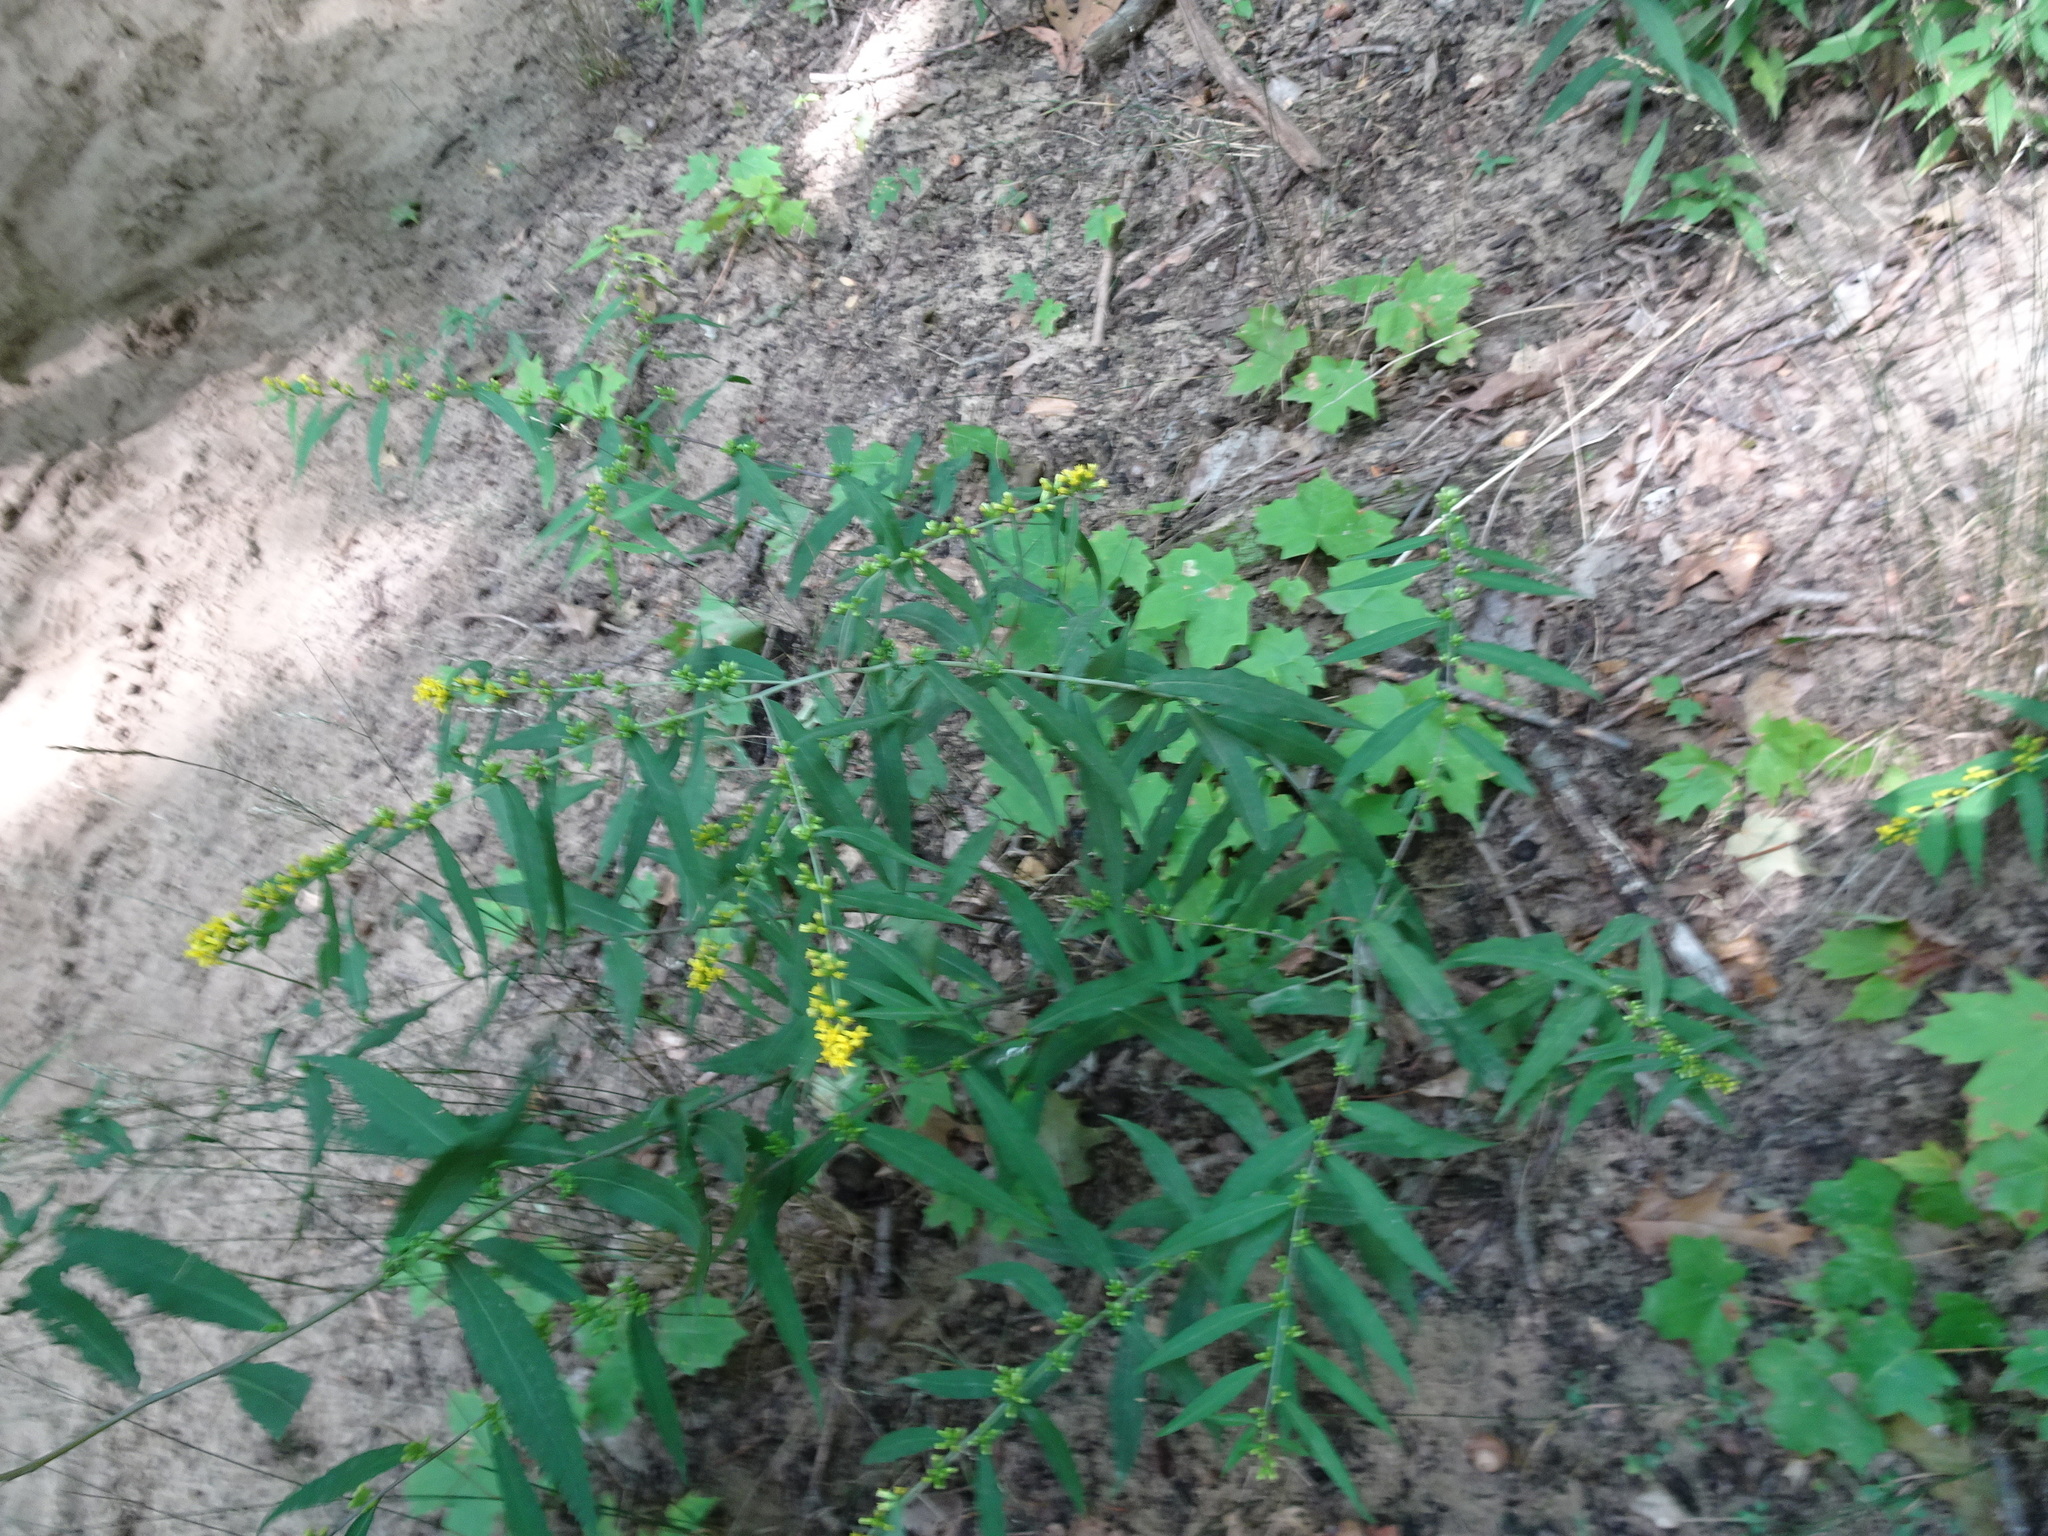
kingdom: Plantae
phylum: Tracheophyta
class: Magnoliopsida
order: Asterales
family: Asteraceae
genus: Solidago
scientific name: Solidago caesia
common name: Woodland goldenrod
